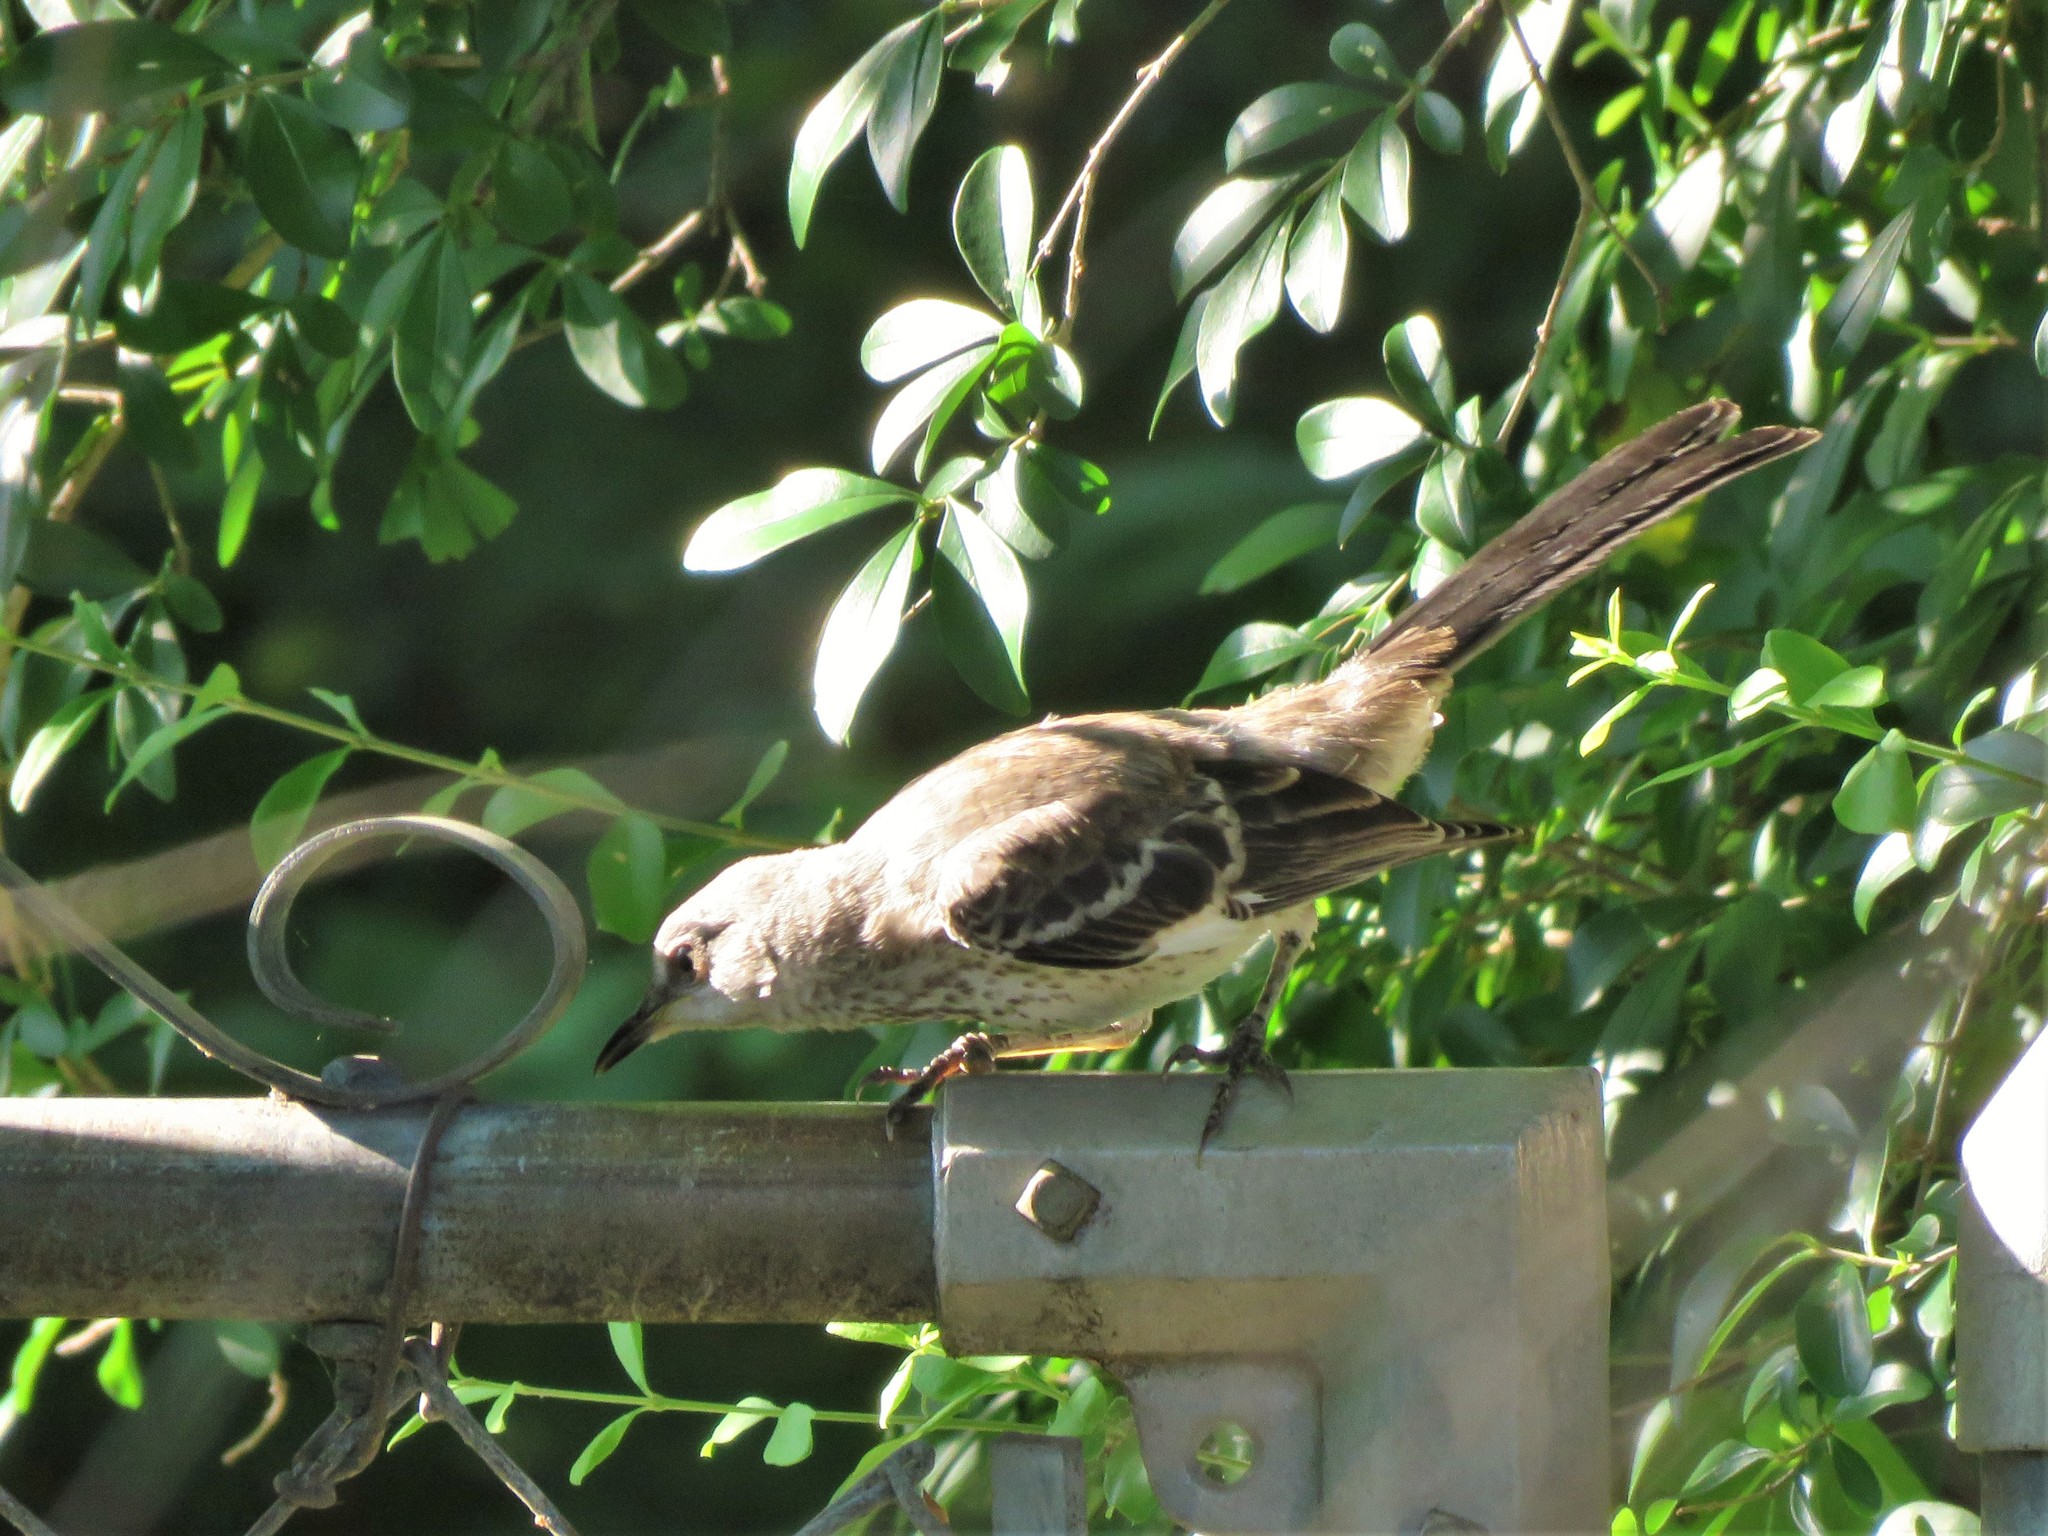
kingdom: Animalia
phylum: Chordata
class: Aves
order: Passeriformes
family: Mimidae
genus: Mimus
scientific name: Mimus polyglottos
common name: Northern mockingbird
